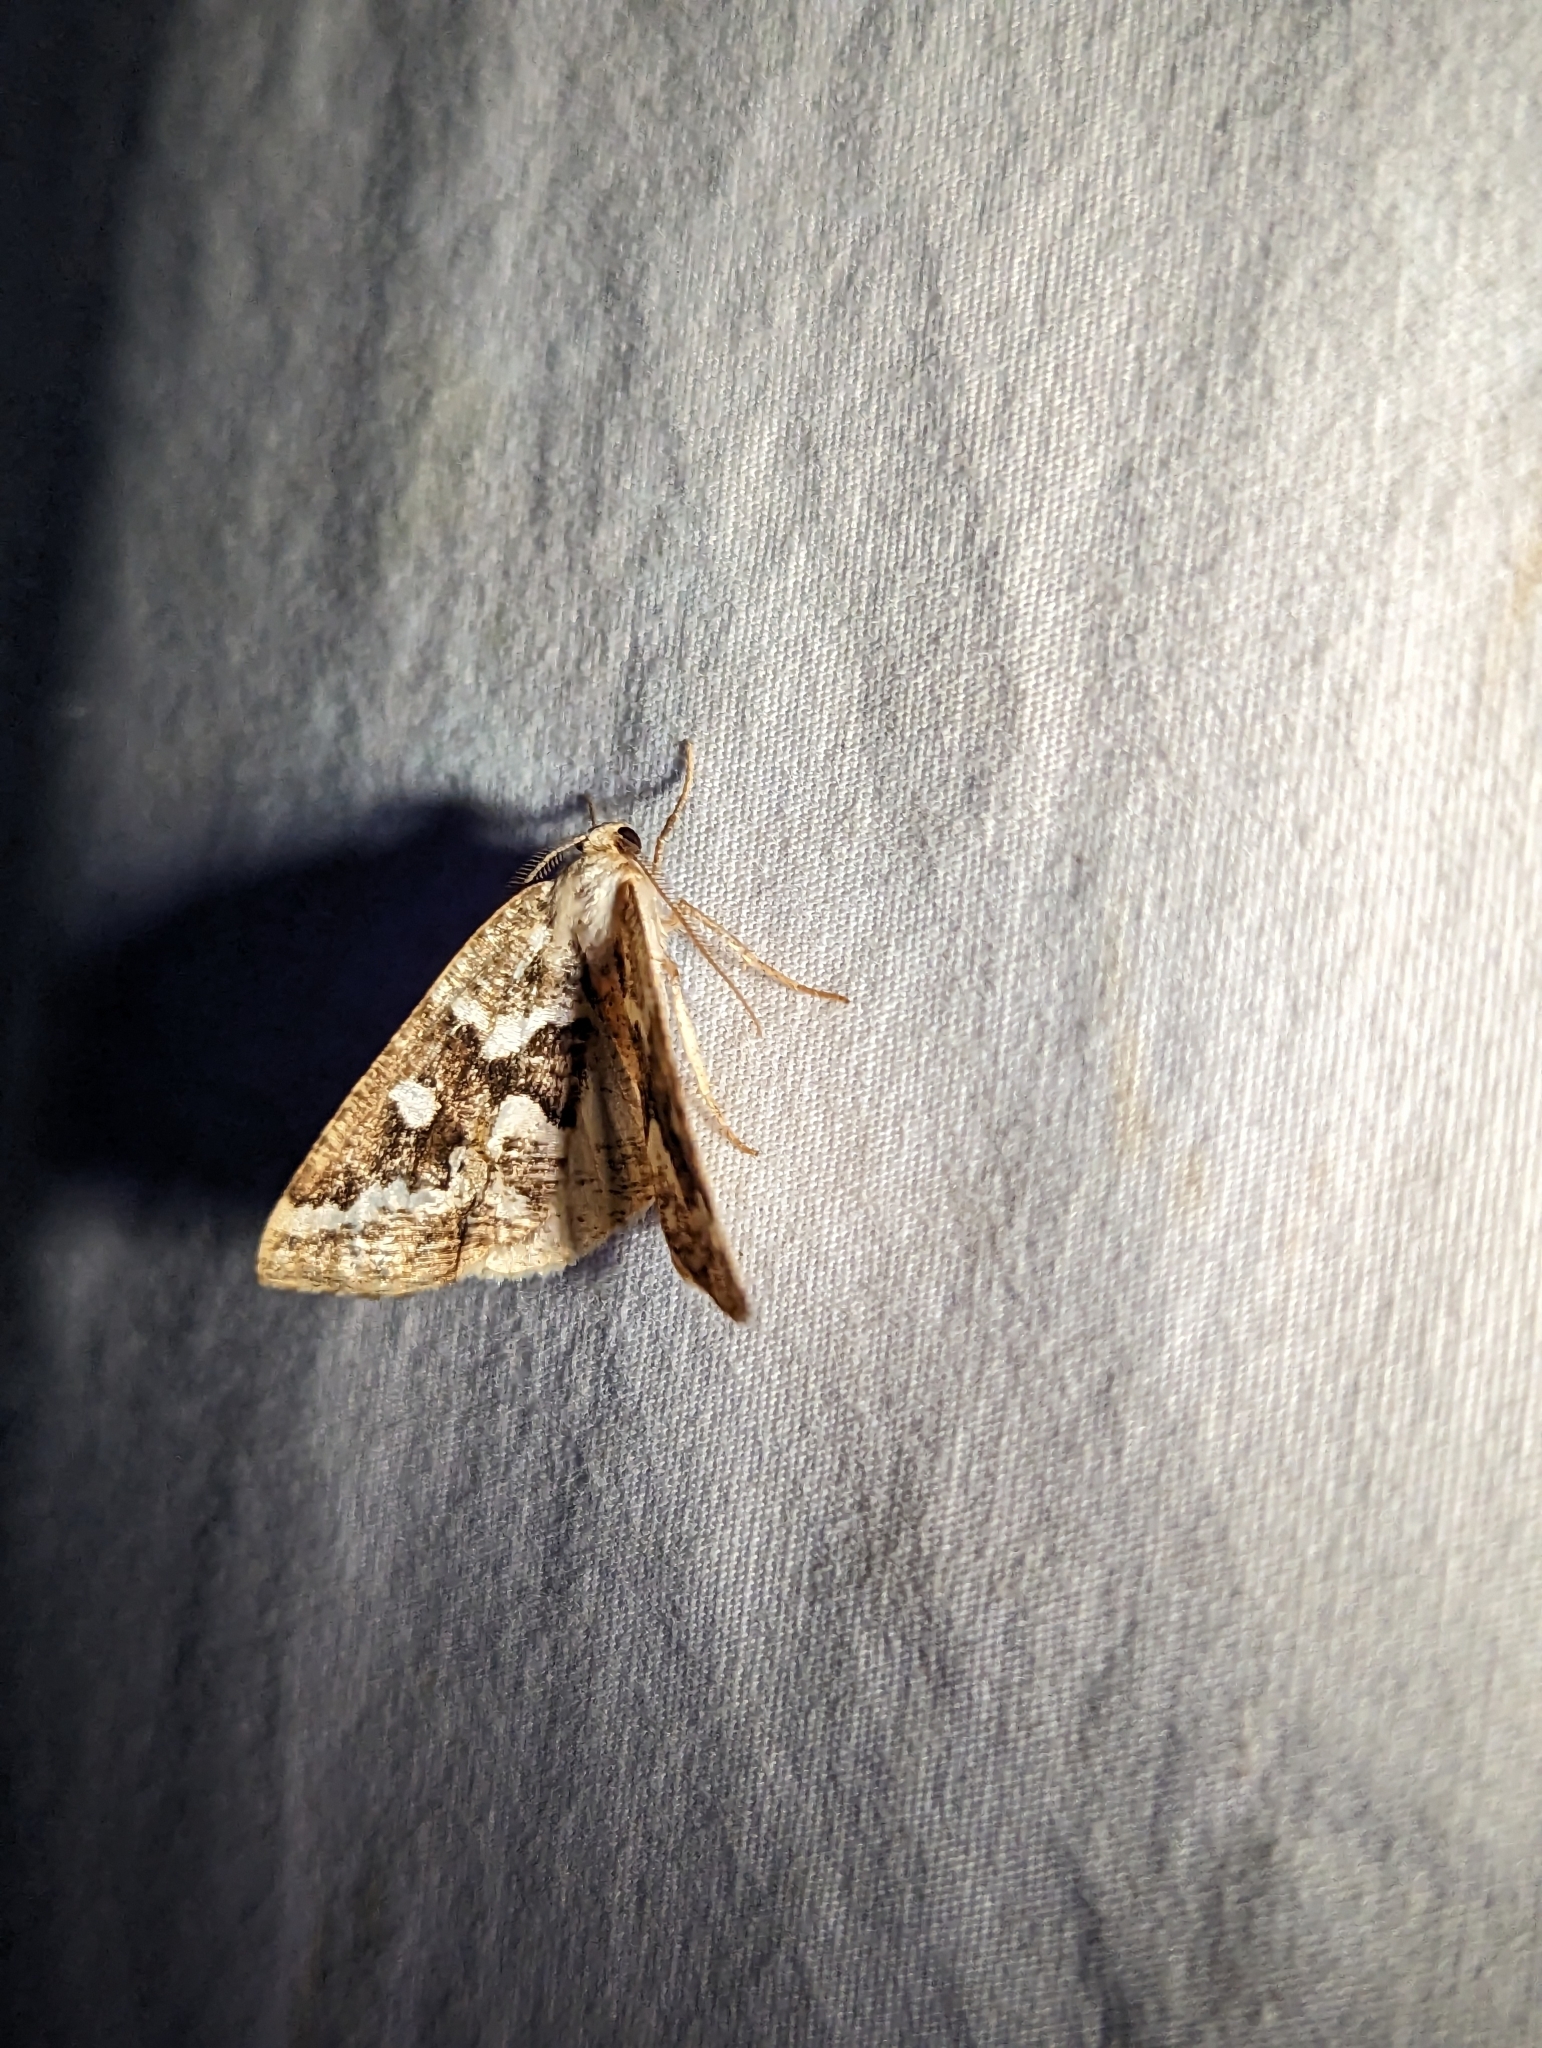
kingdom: Animalia
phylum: Arthropoda
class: Insecta
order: Lepidoptera
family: Geometridae
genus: Caripeta
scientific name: Caripeta divisata
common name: Gray spruce looper
